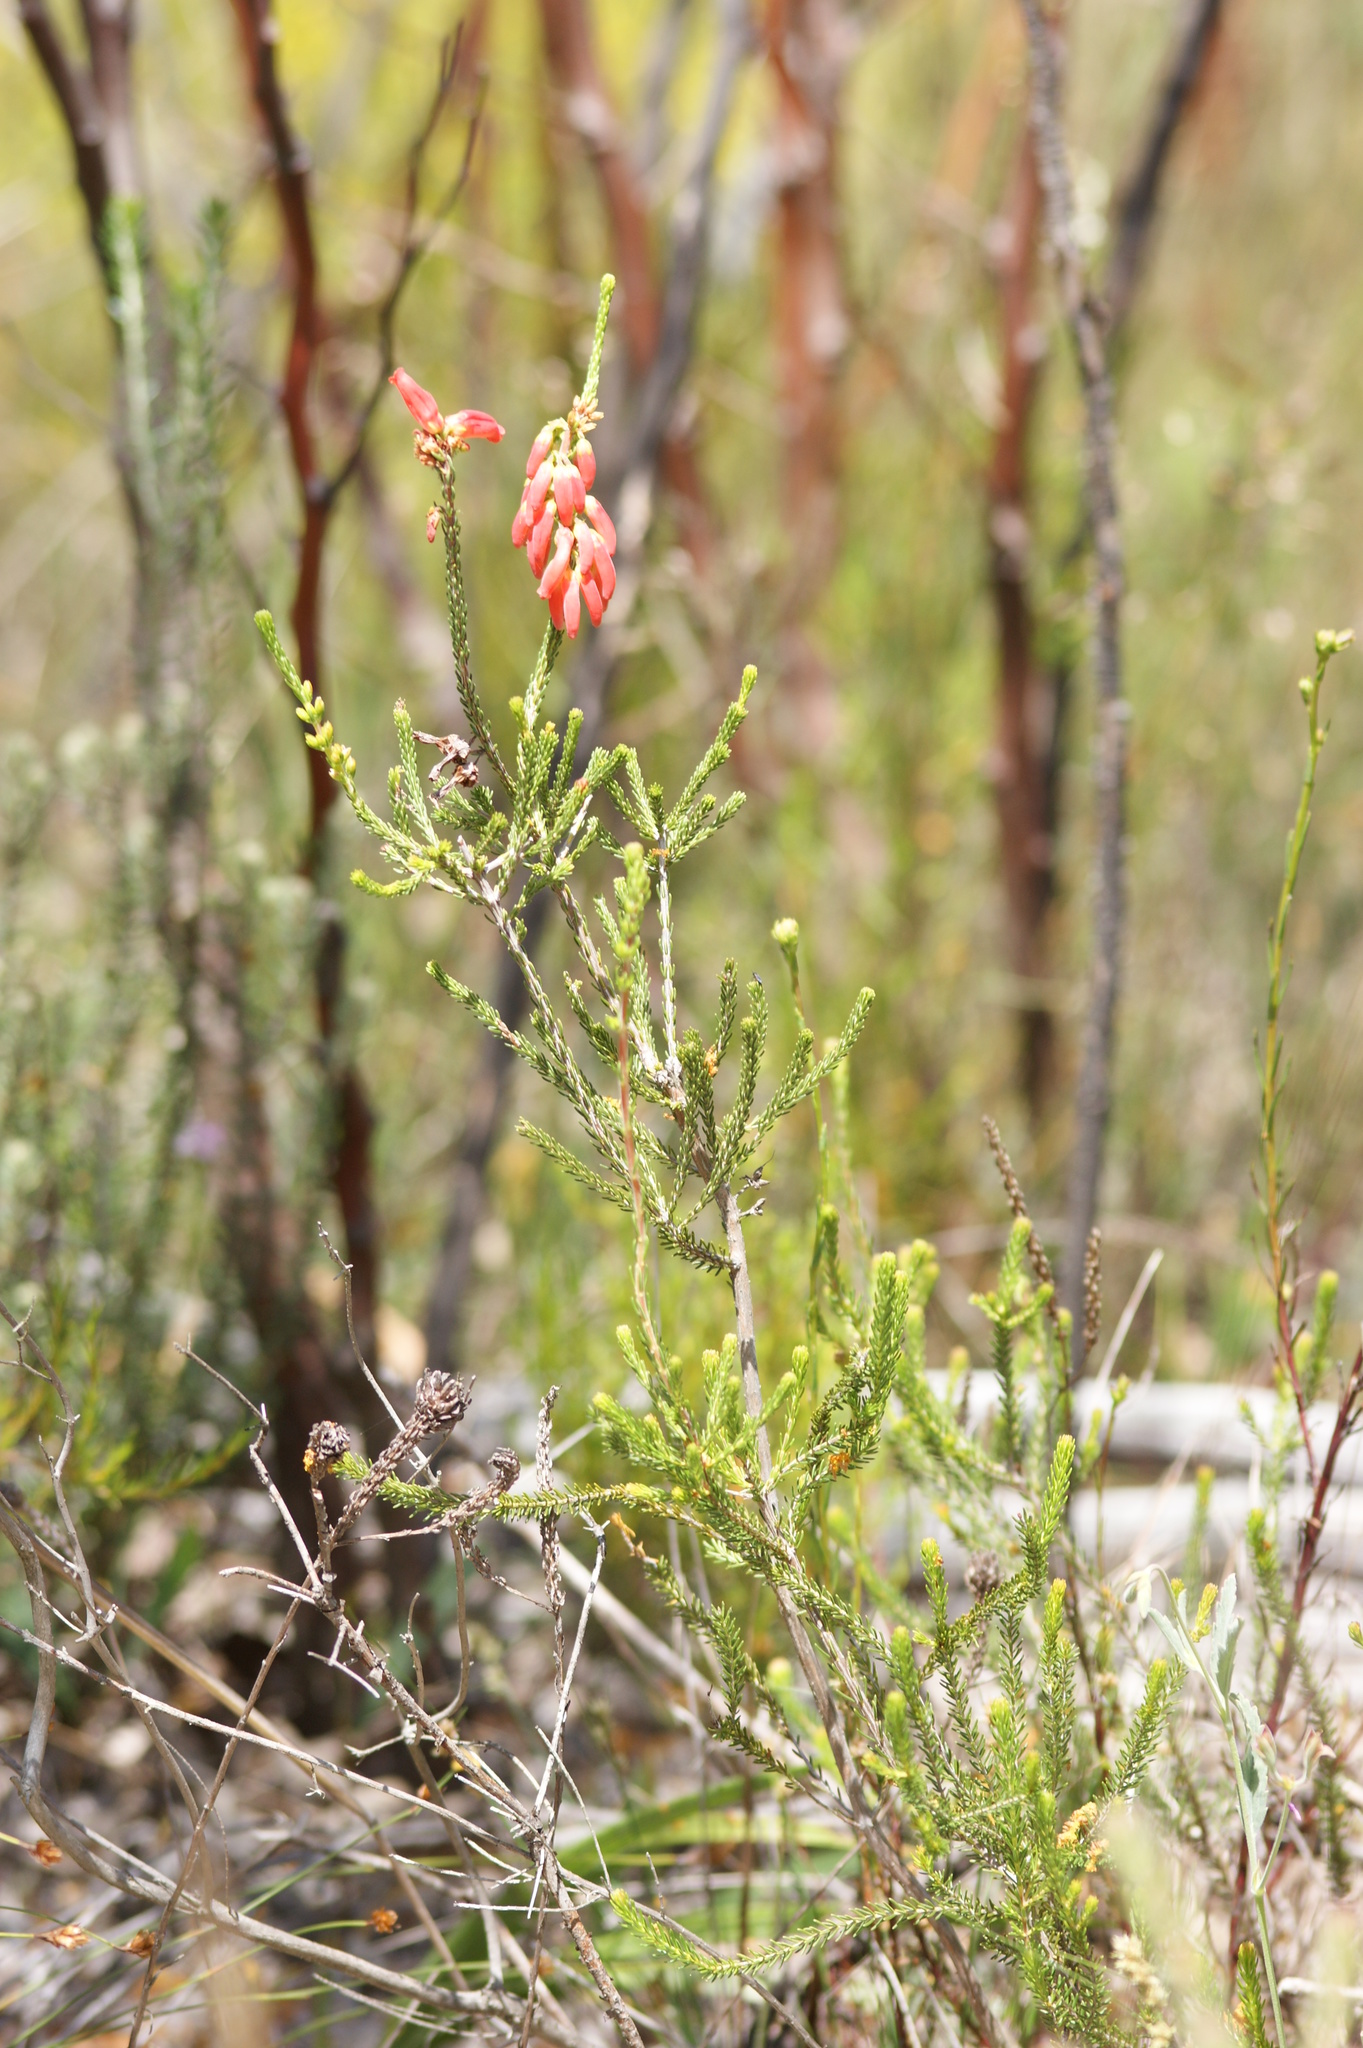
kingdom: Plantae
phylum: Tracheophyta
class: Magnoliopsida
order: Ericales
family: Ericaceae
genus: Erica
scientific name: Erica mammosa
